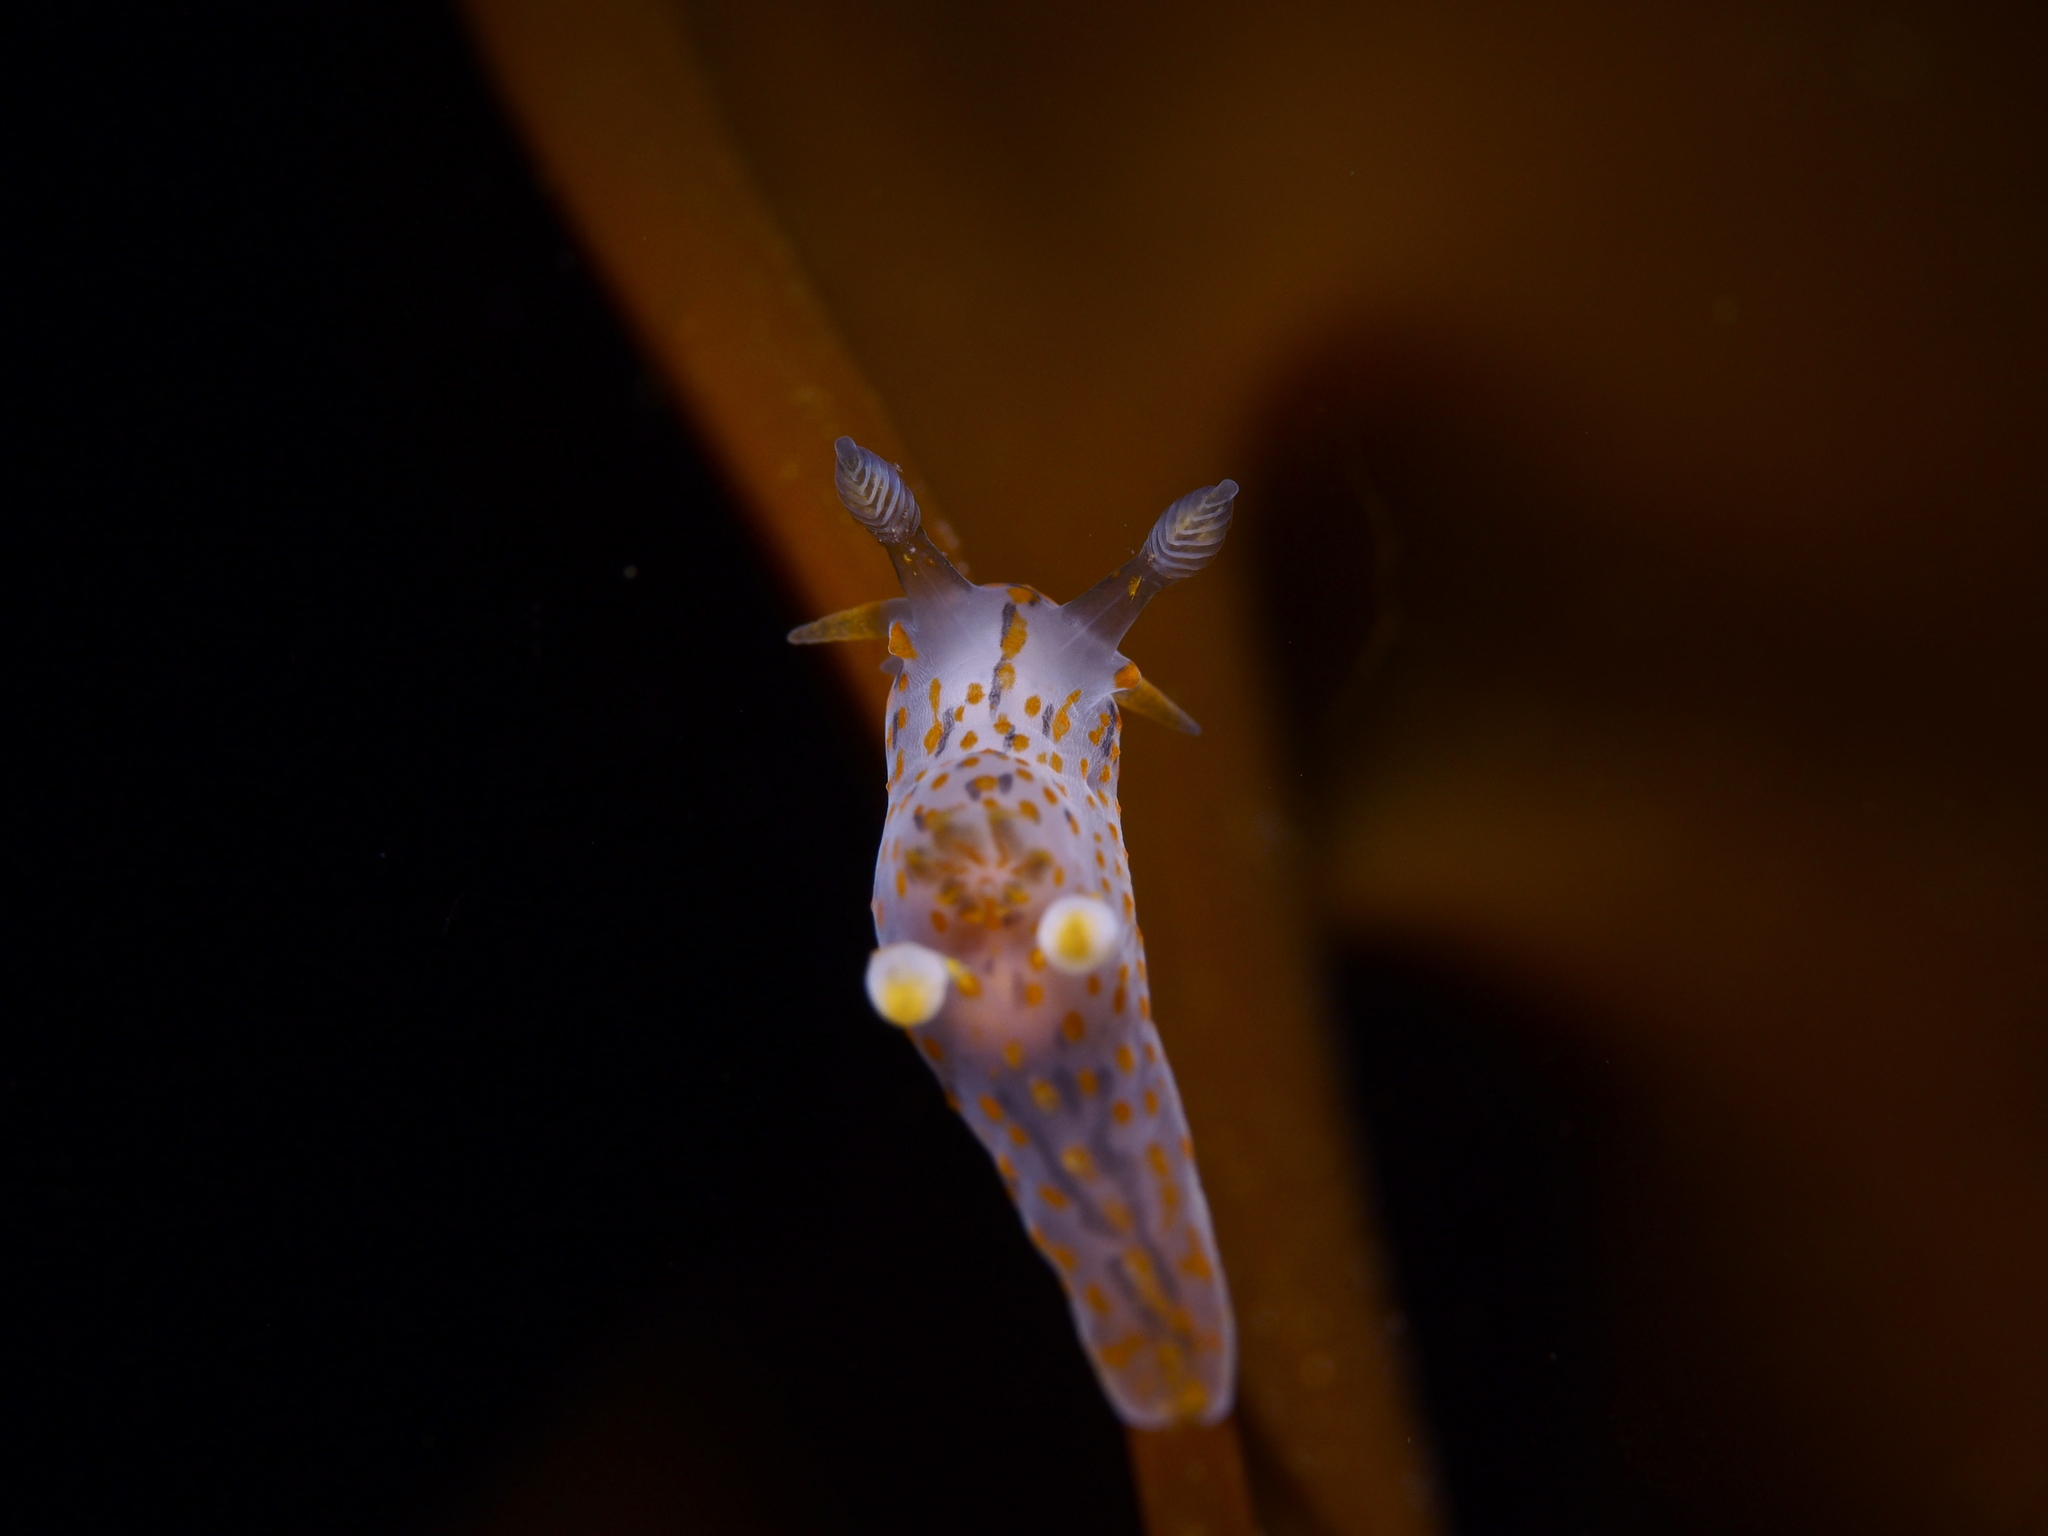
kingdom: Animalia
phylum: Mollusca
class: Gastropoda
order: Nudibranchia
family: Polyceridae
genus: Polycera
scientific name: Polycera quadrilineata
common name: Four-striped polycera
